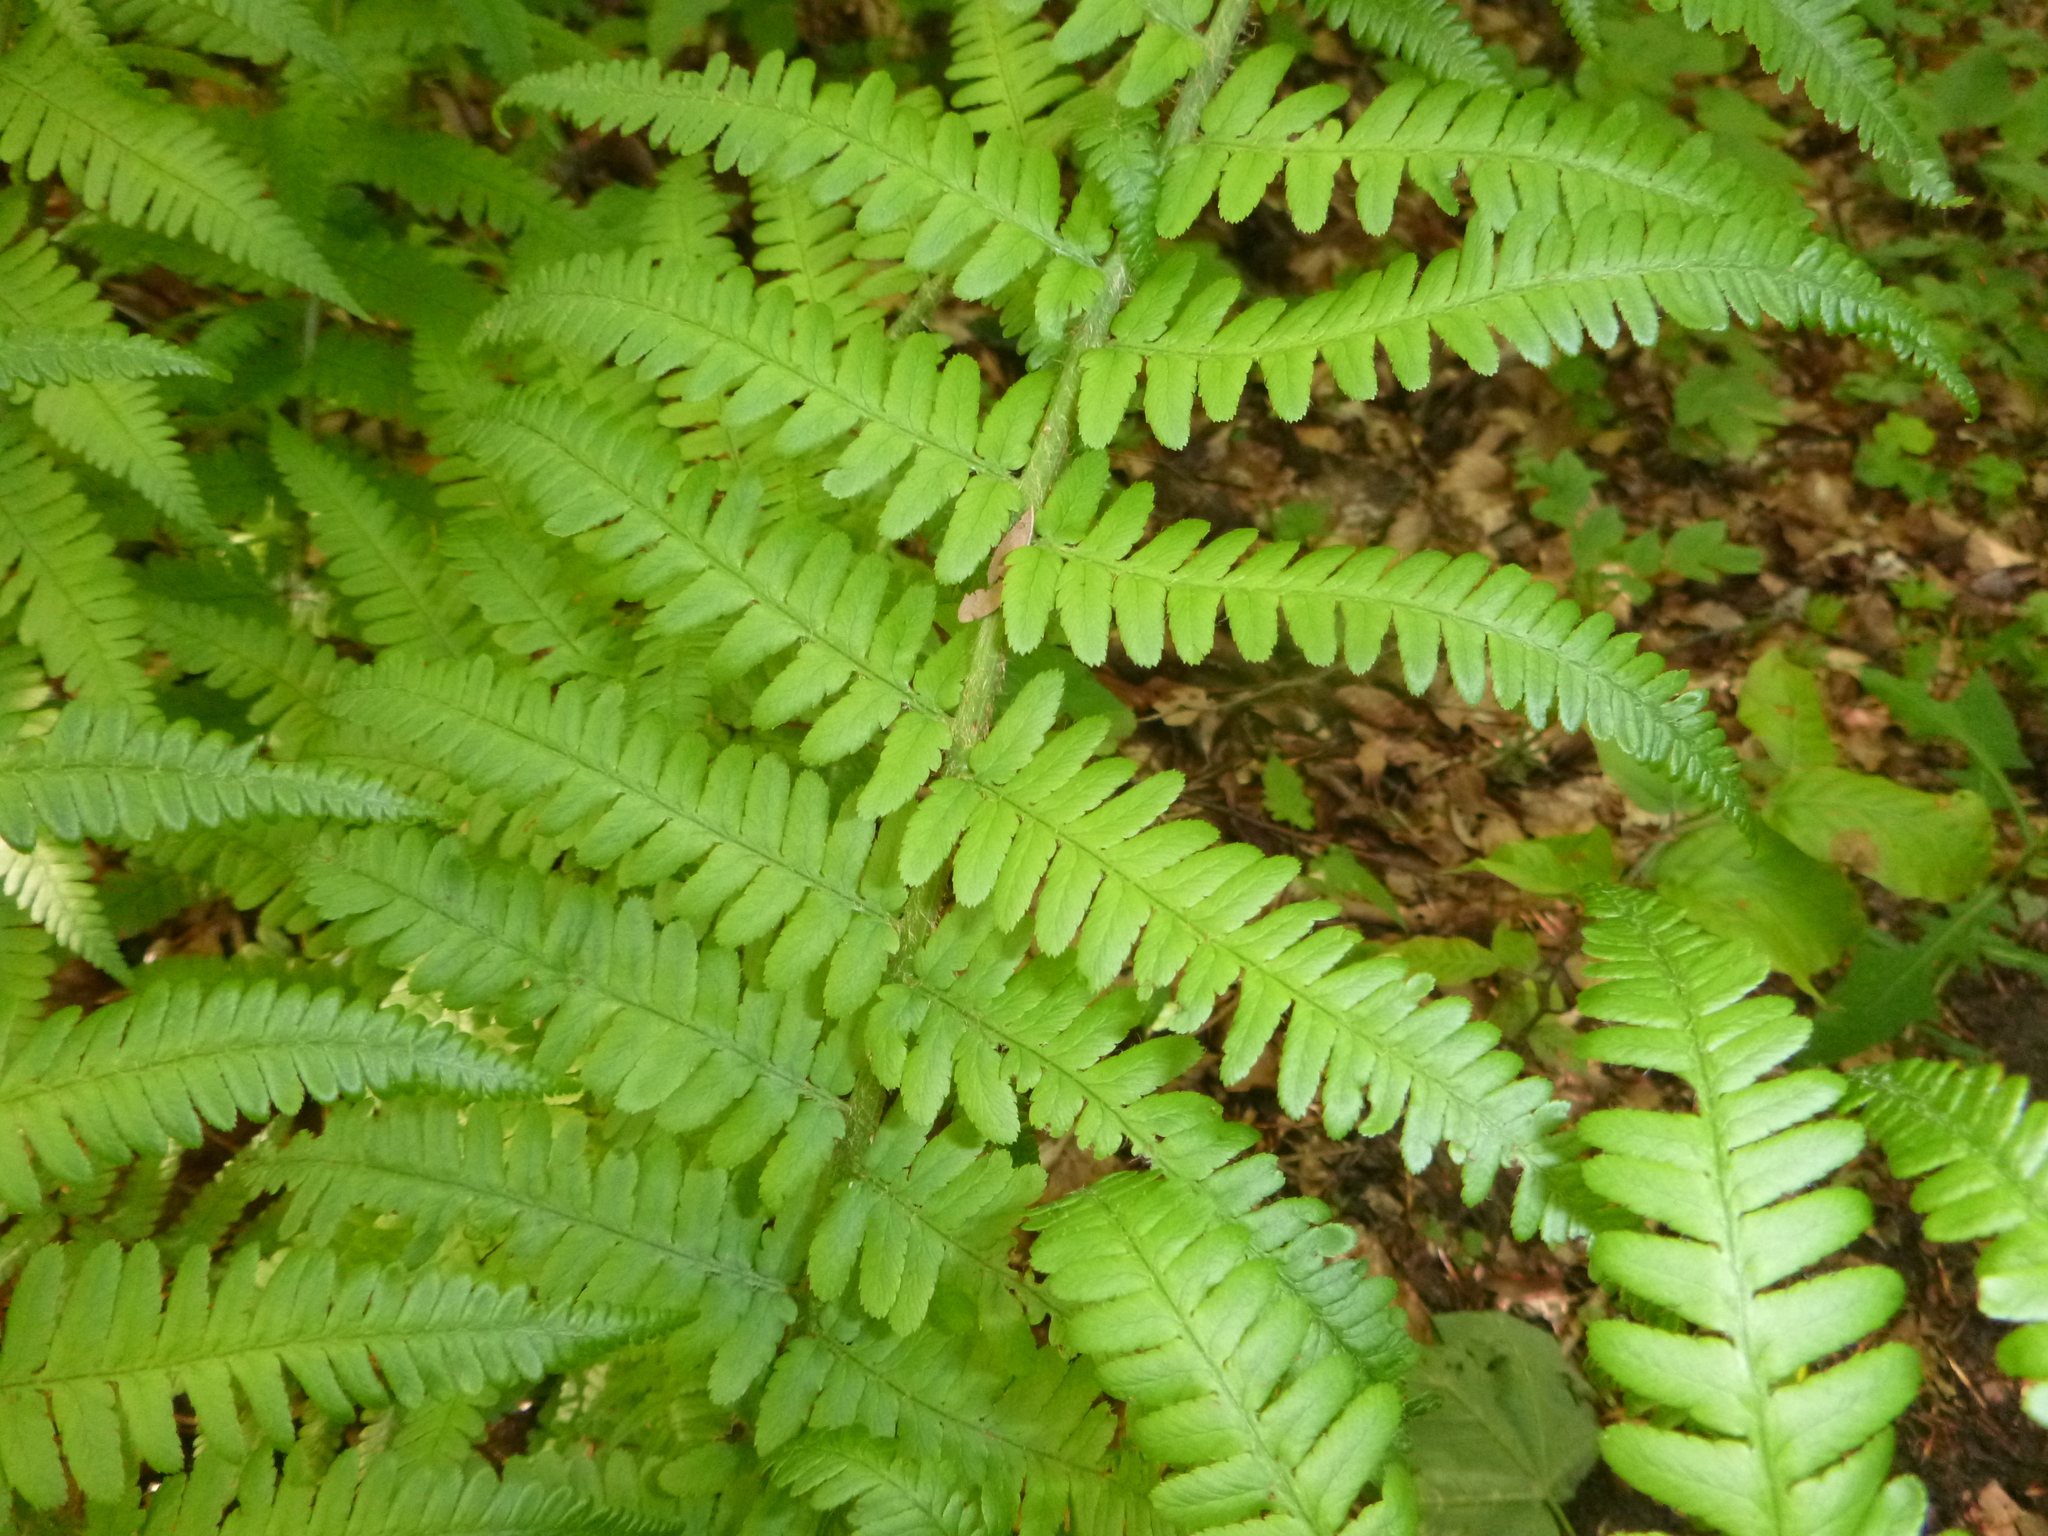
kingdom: Plantae
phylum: Tracheophyta
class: Polypodiopsida
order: Polypodiales
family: Dryopteridaceae
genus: Dryopteris
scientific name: Dryopteris filix-mas
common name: Male fern
